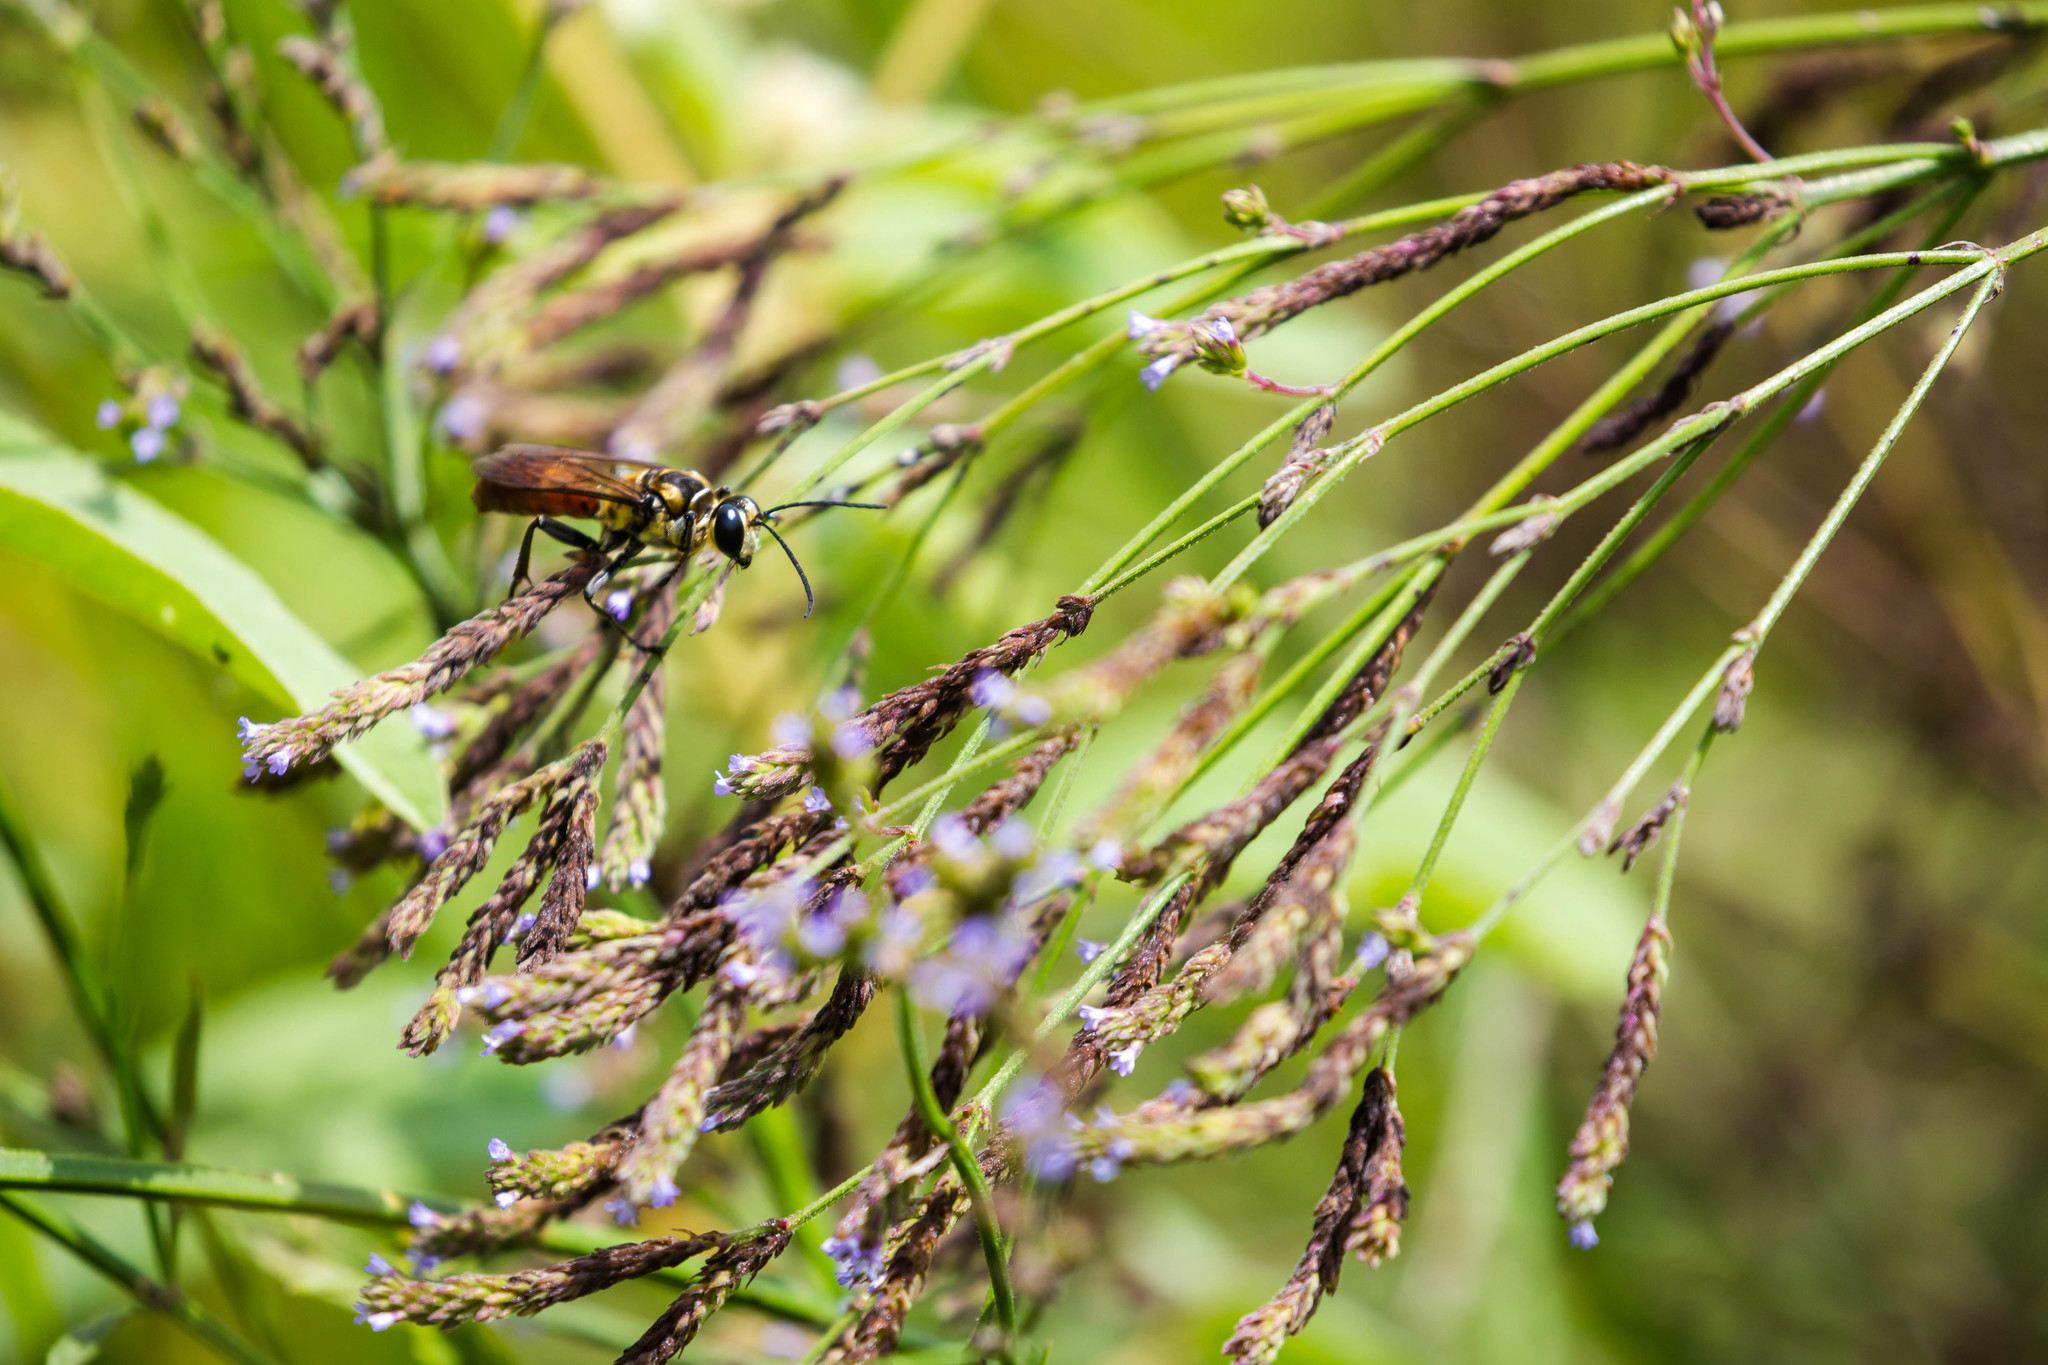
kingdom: Animalia
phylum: Arthropoda
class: Insecta
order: Hymenoptera
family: Sphecidae
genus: Sphex
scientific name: Sphex habenus
